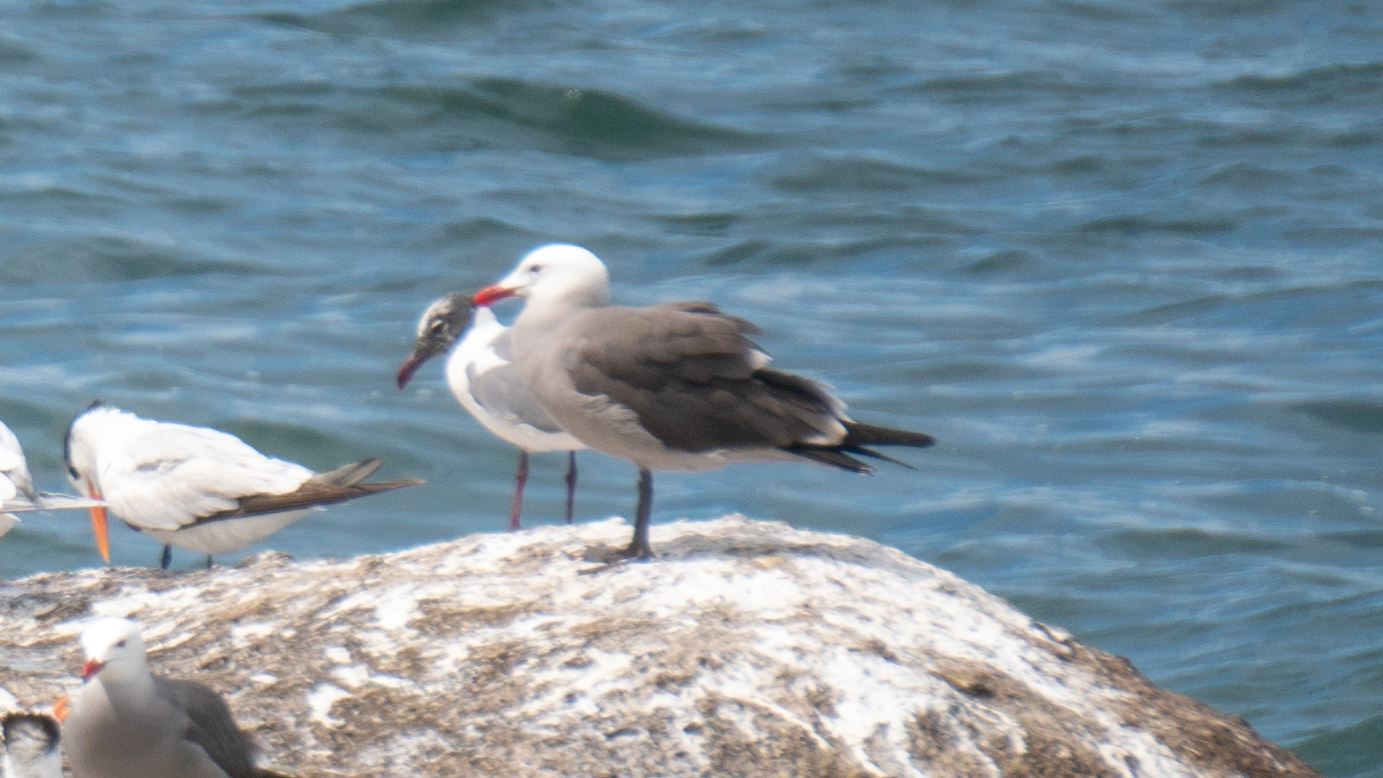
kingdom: Animalia
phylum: Chordata
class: Aves
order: Charadriiformes
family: Laridae
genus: Larus
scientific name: Larus heermanni
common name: Heermann's gull
